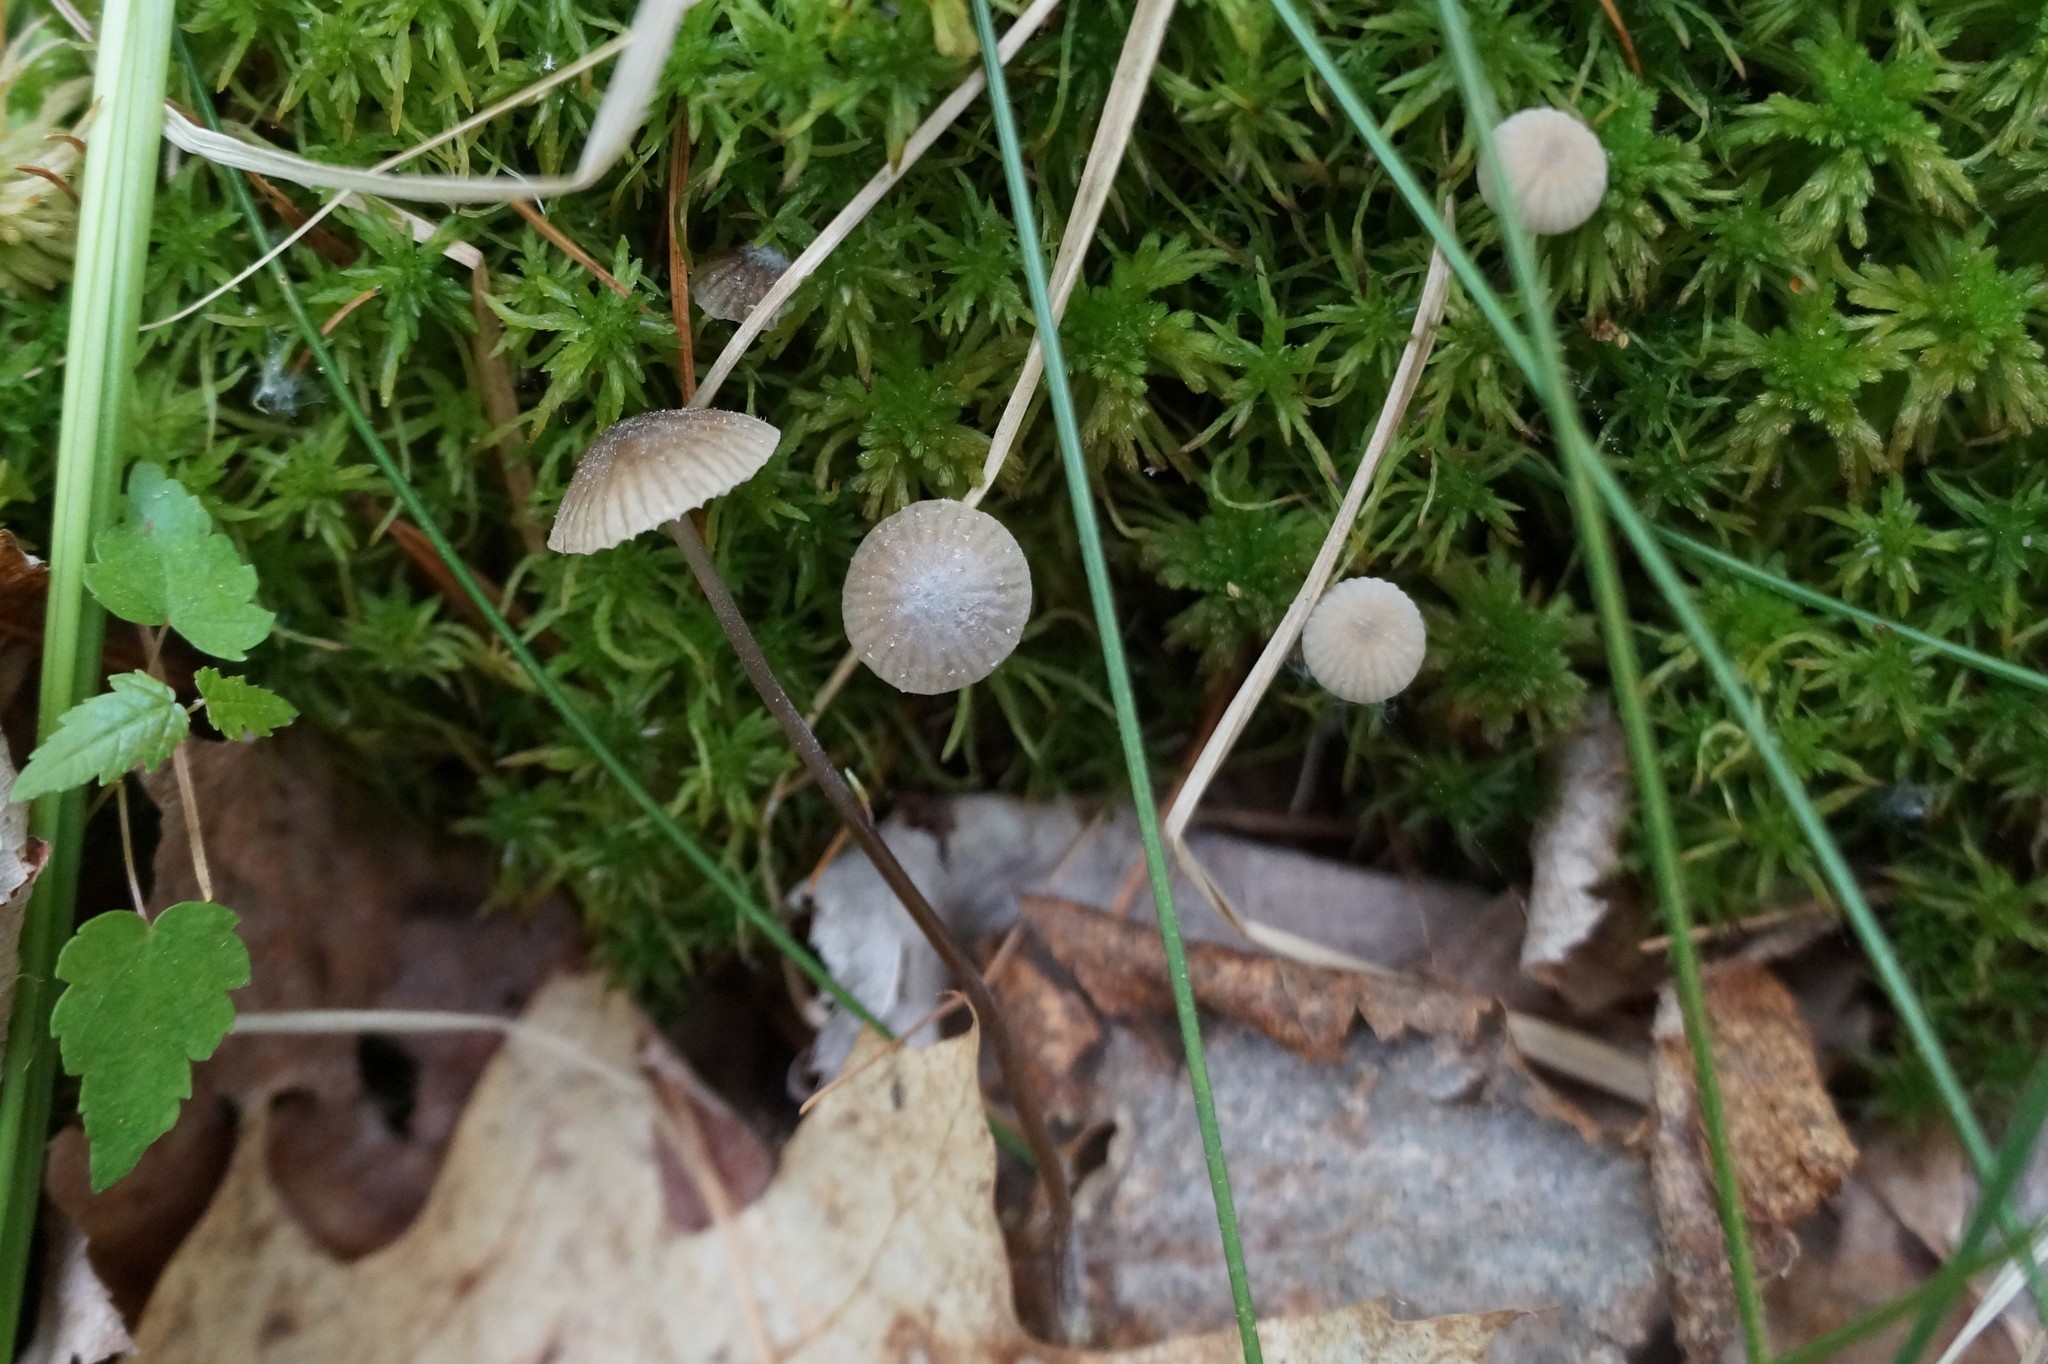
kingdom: Fungi
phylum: Basidiomycota
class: Agaricomycetes
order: Agaricales
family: Lyophyllaceae
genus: Sphagnurus
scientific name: Sphagnurus paluster
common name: Sphagnum greyling
